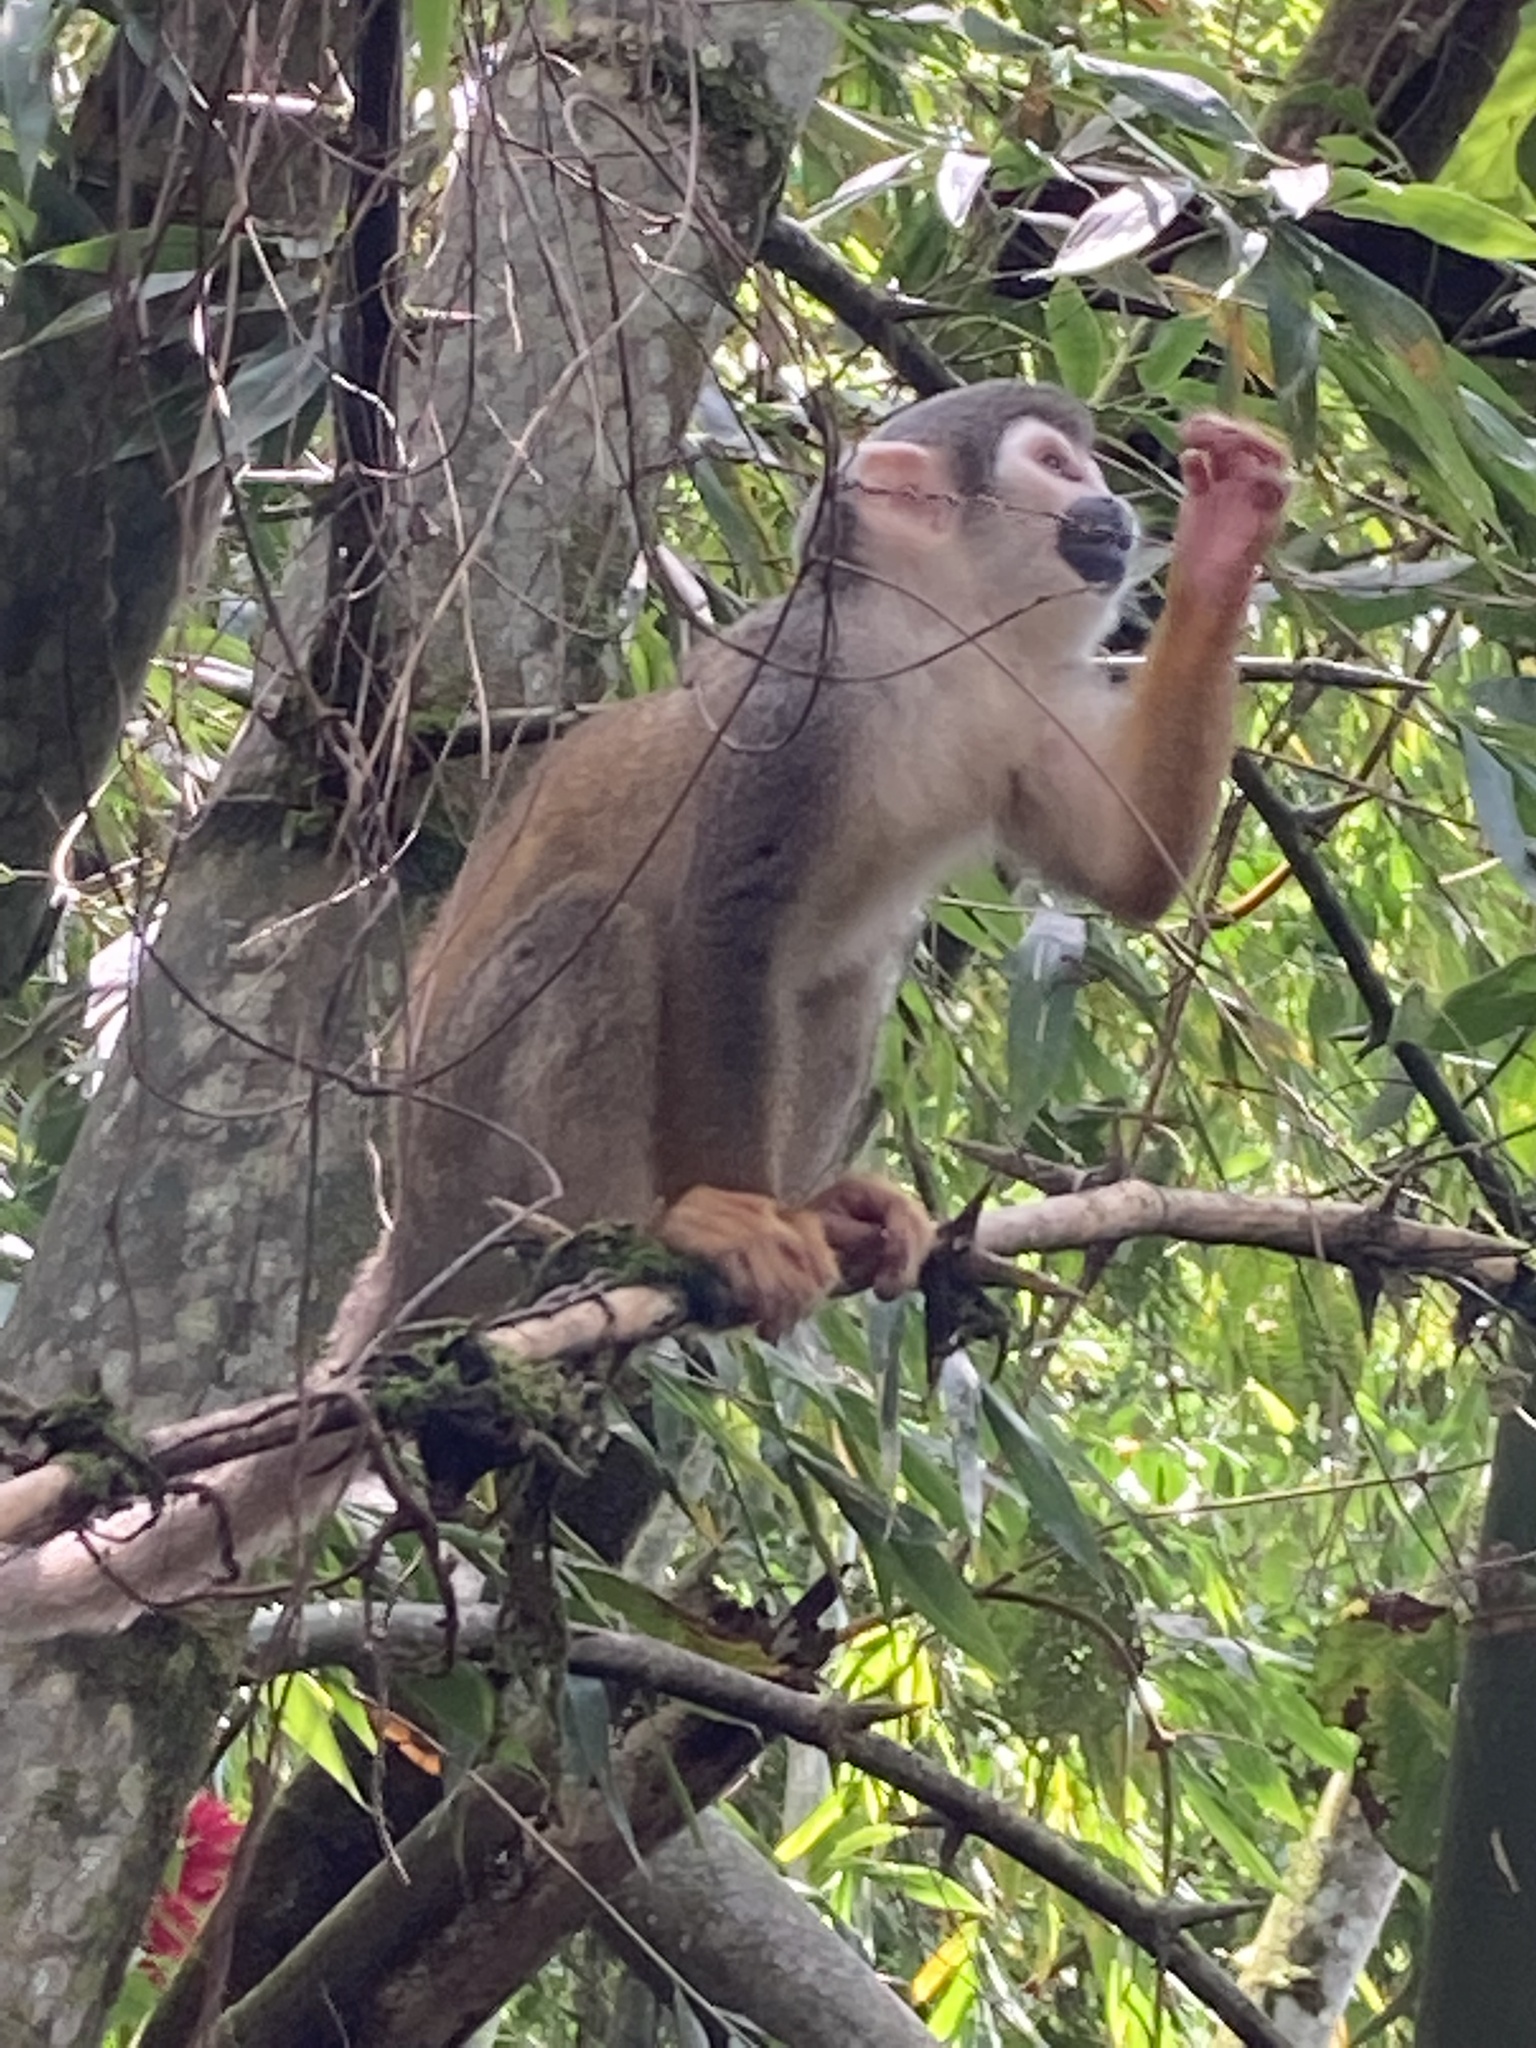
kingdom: Animalia
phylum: Chordata
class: Mammalia
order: Primates
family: Cebidae
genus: Saimiri
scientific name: Saimiri cassiquiarensis
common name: Humboldt’s squirrel monkey
